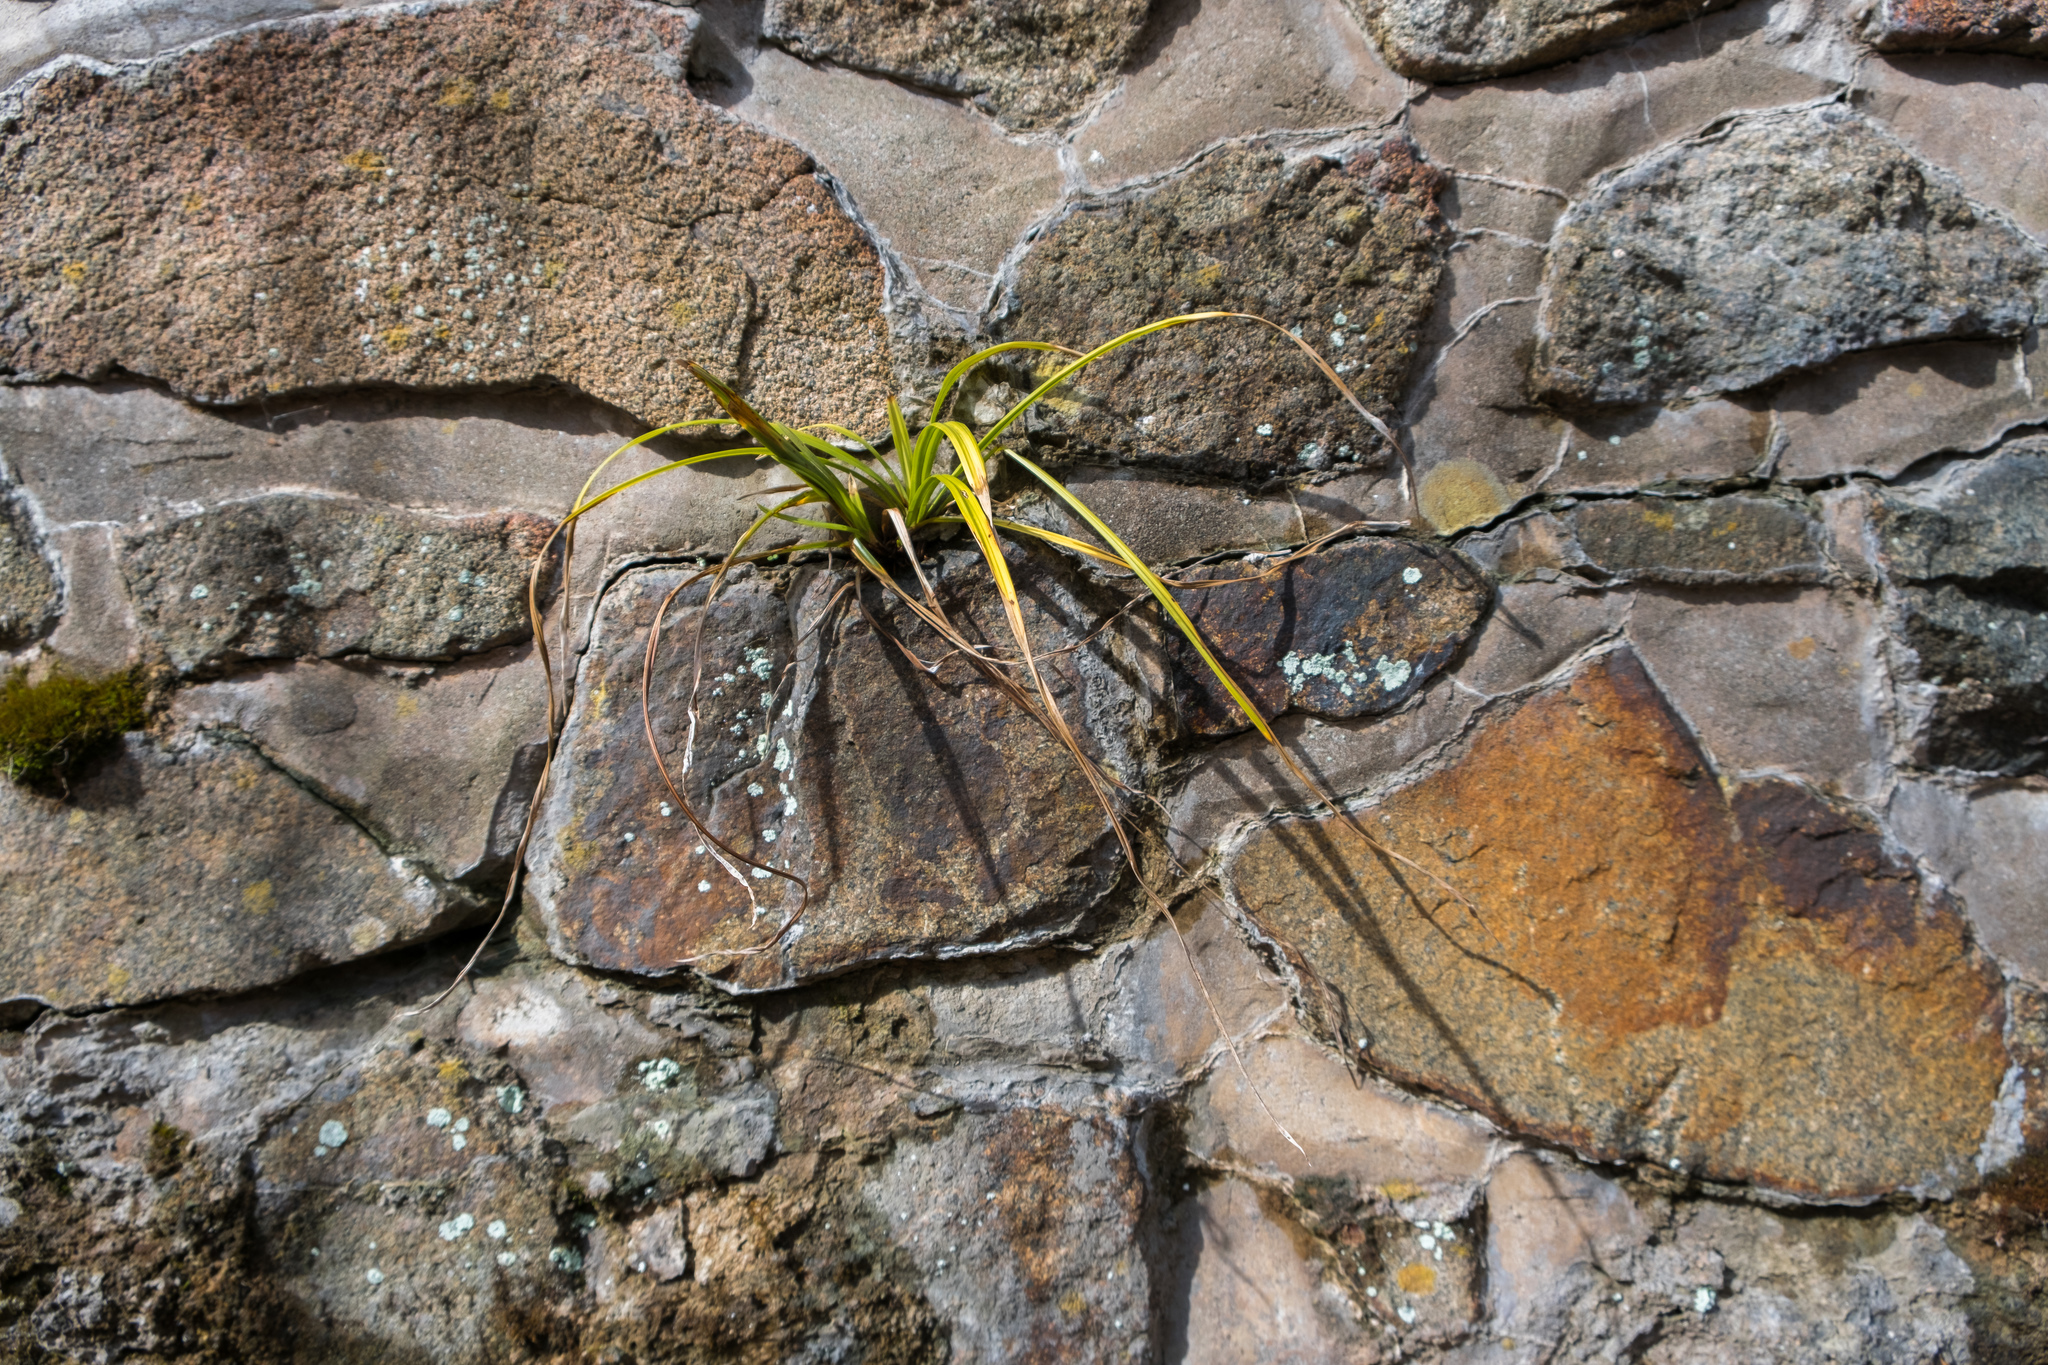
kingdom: Plantae
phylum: Tracheophyta
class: Liliopsida
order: Poales
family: Cyperaceae
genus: Carex
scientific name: Carex
